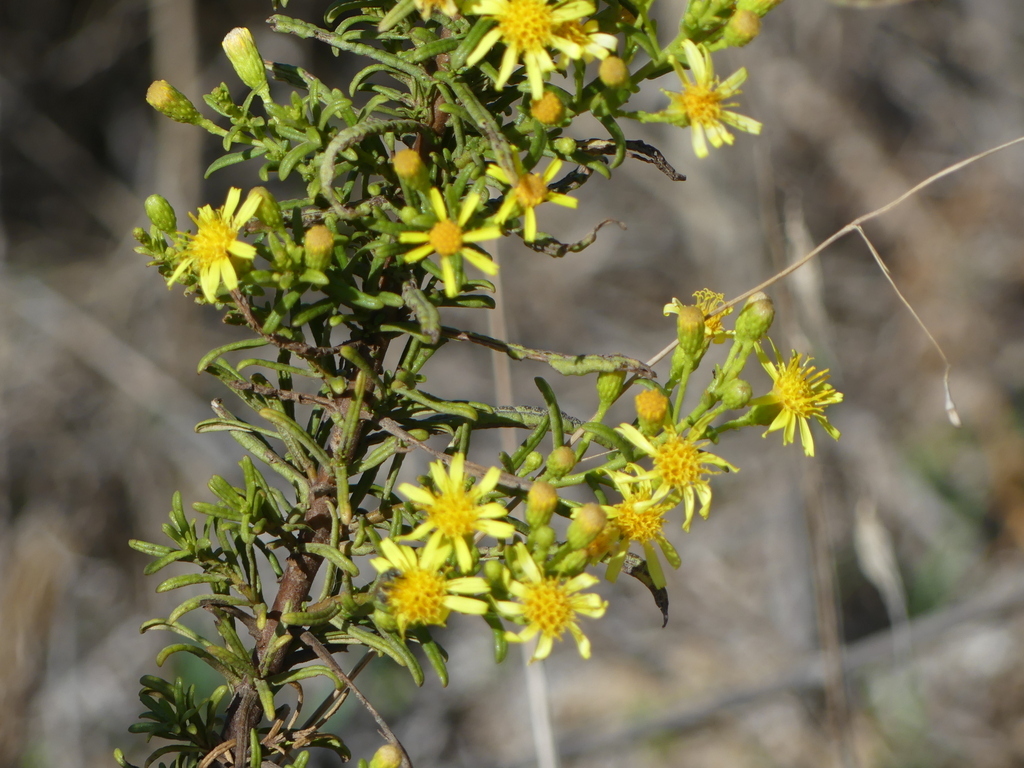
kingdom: Plantae
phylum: Tracheophyta
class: Magnoliopsida
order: Asterales
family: Asteraceae
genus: Dittrichia
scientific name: Dittrichia viscosa
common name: Woody fleabane
